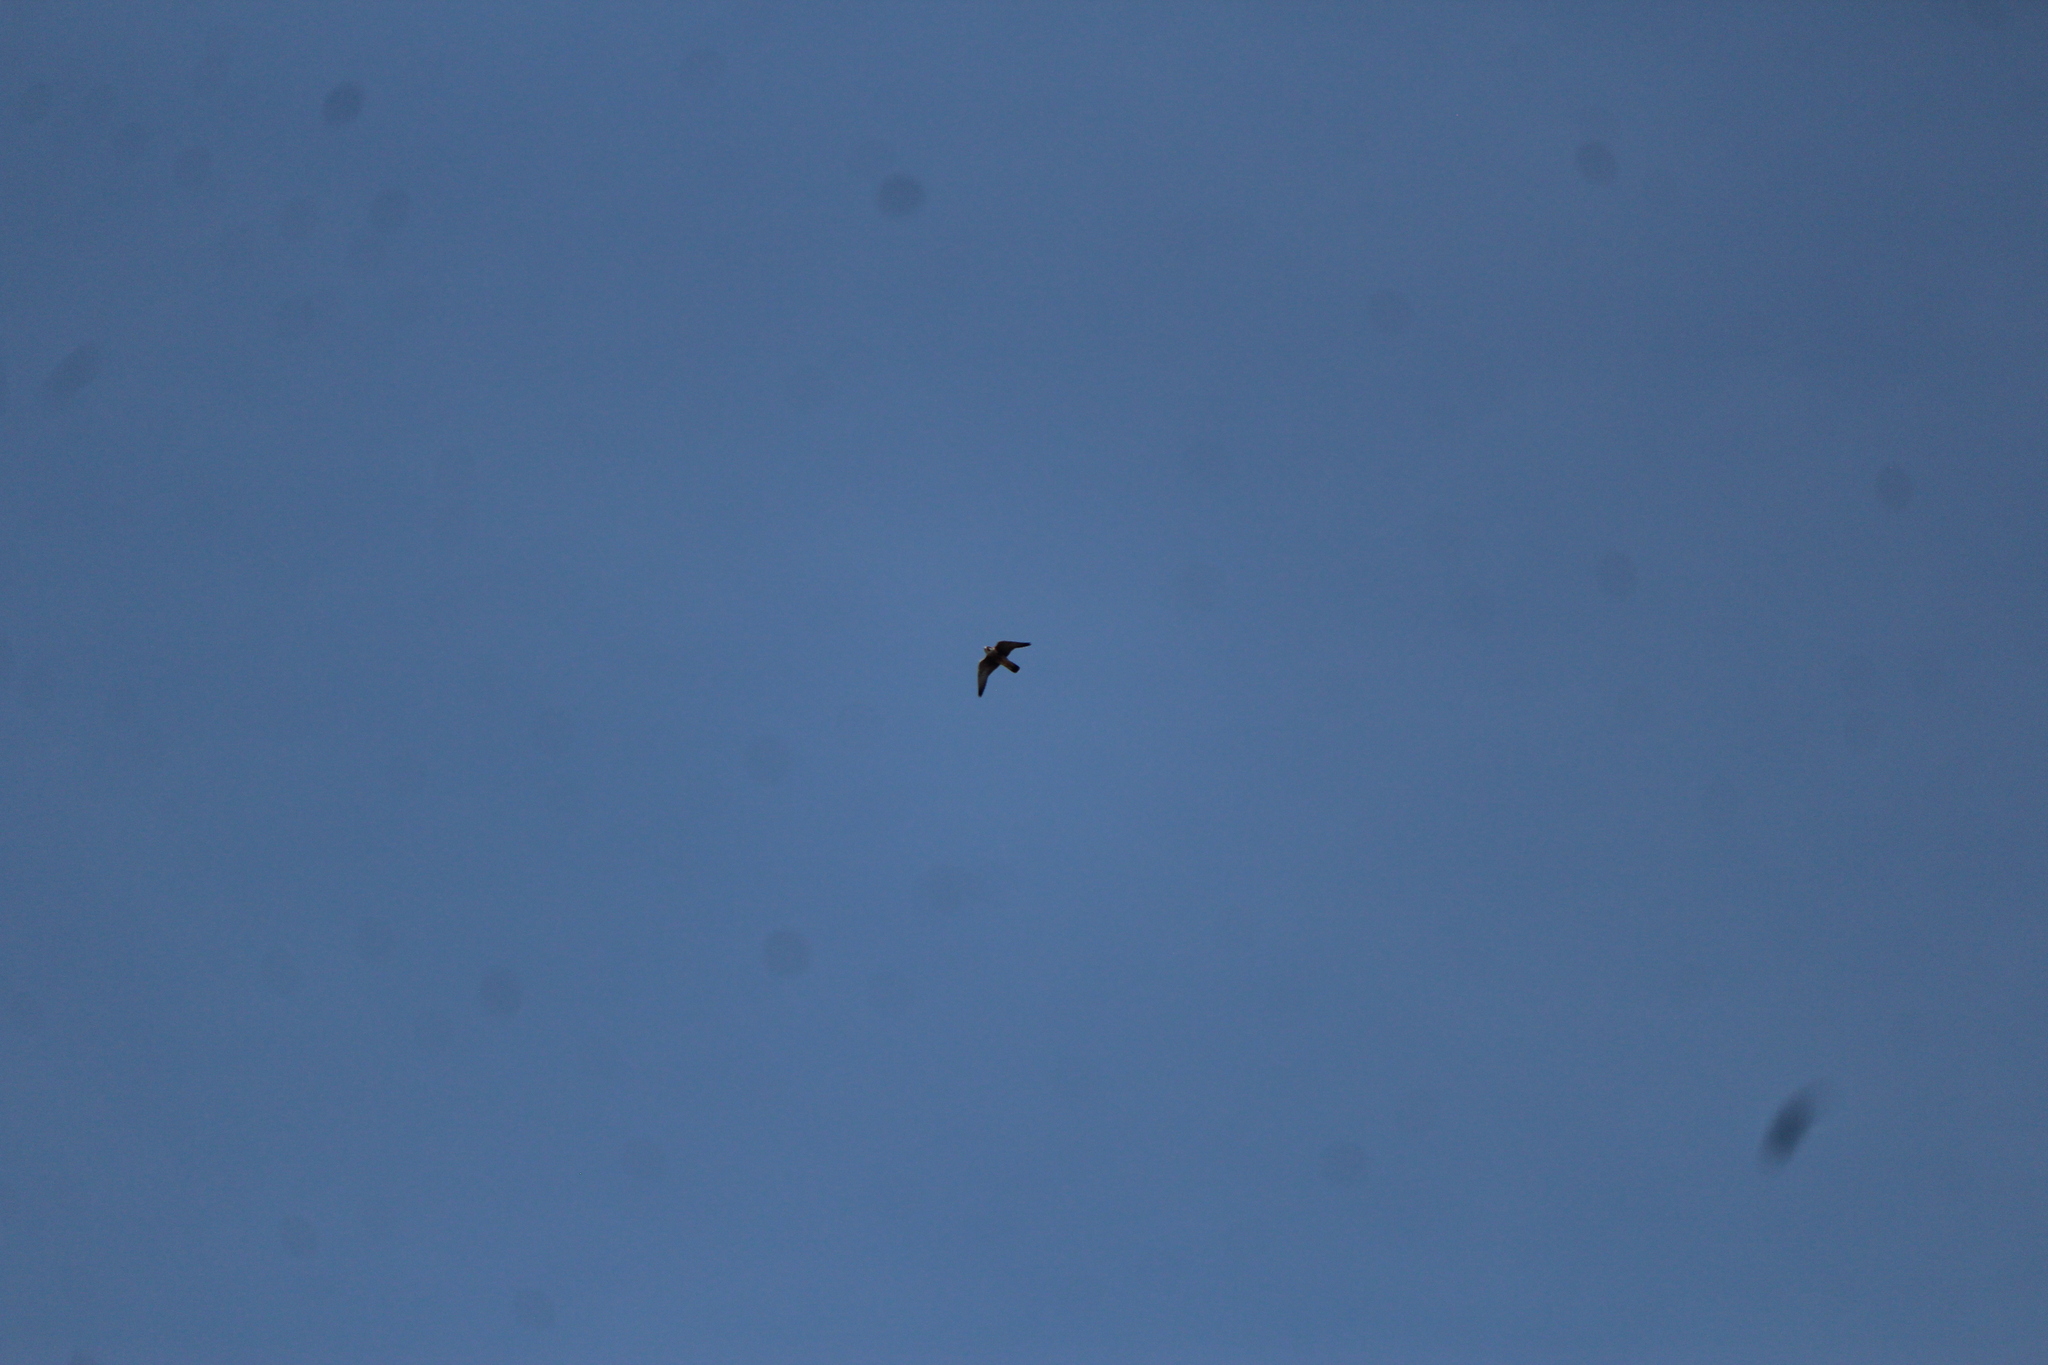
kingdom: Animalia
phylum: Chordata
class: Aves
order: Falconiformes
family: Falconidae
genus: Falco
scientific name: Falco peregrinus
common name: Peregrine falcon
